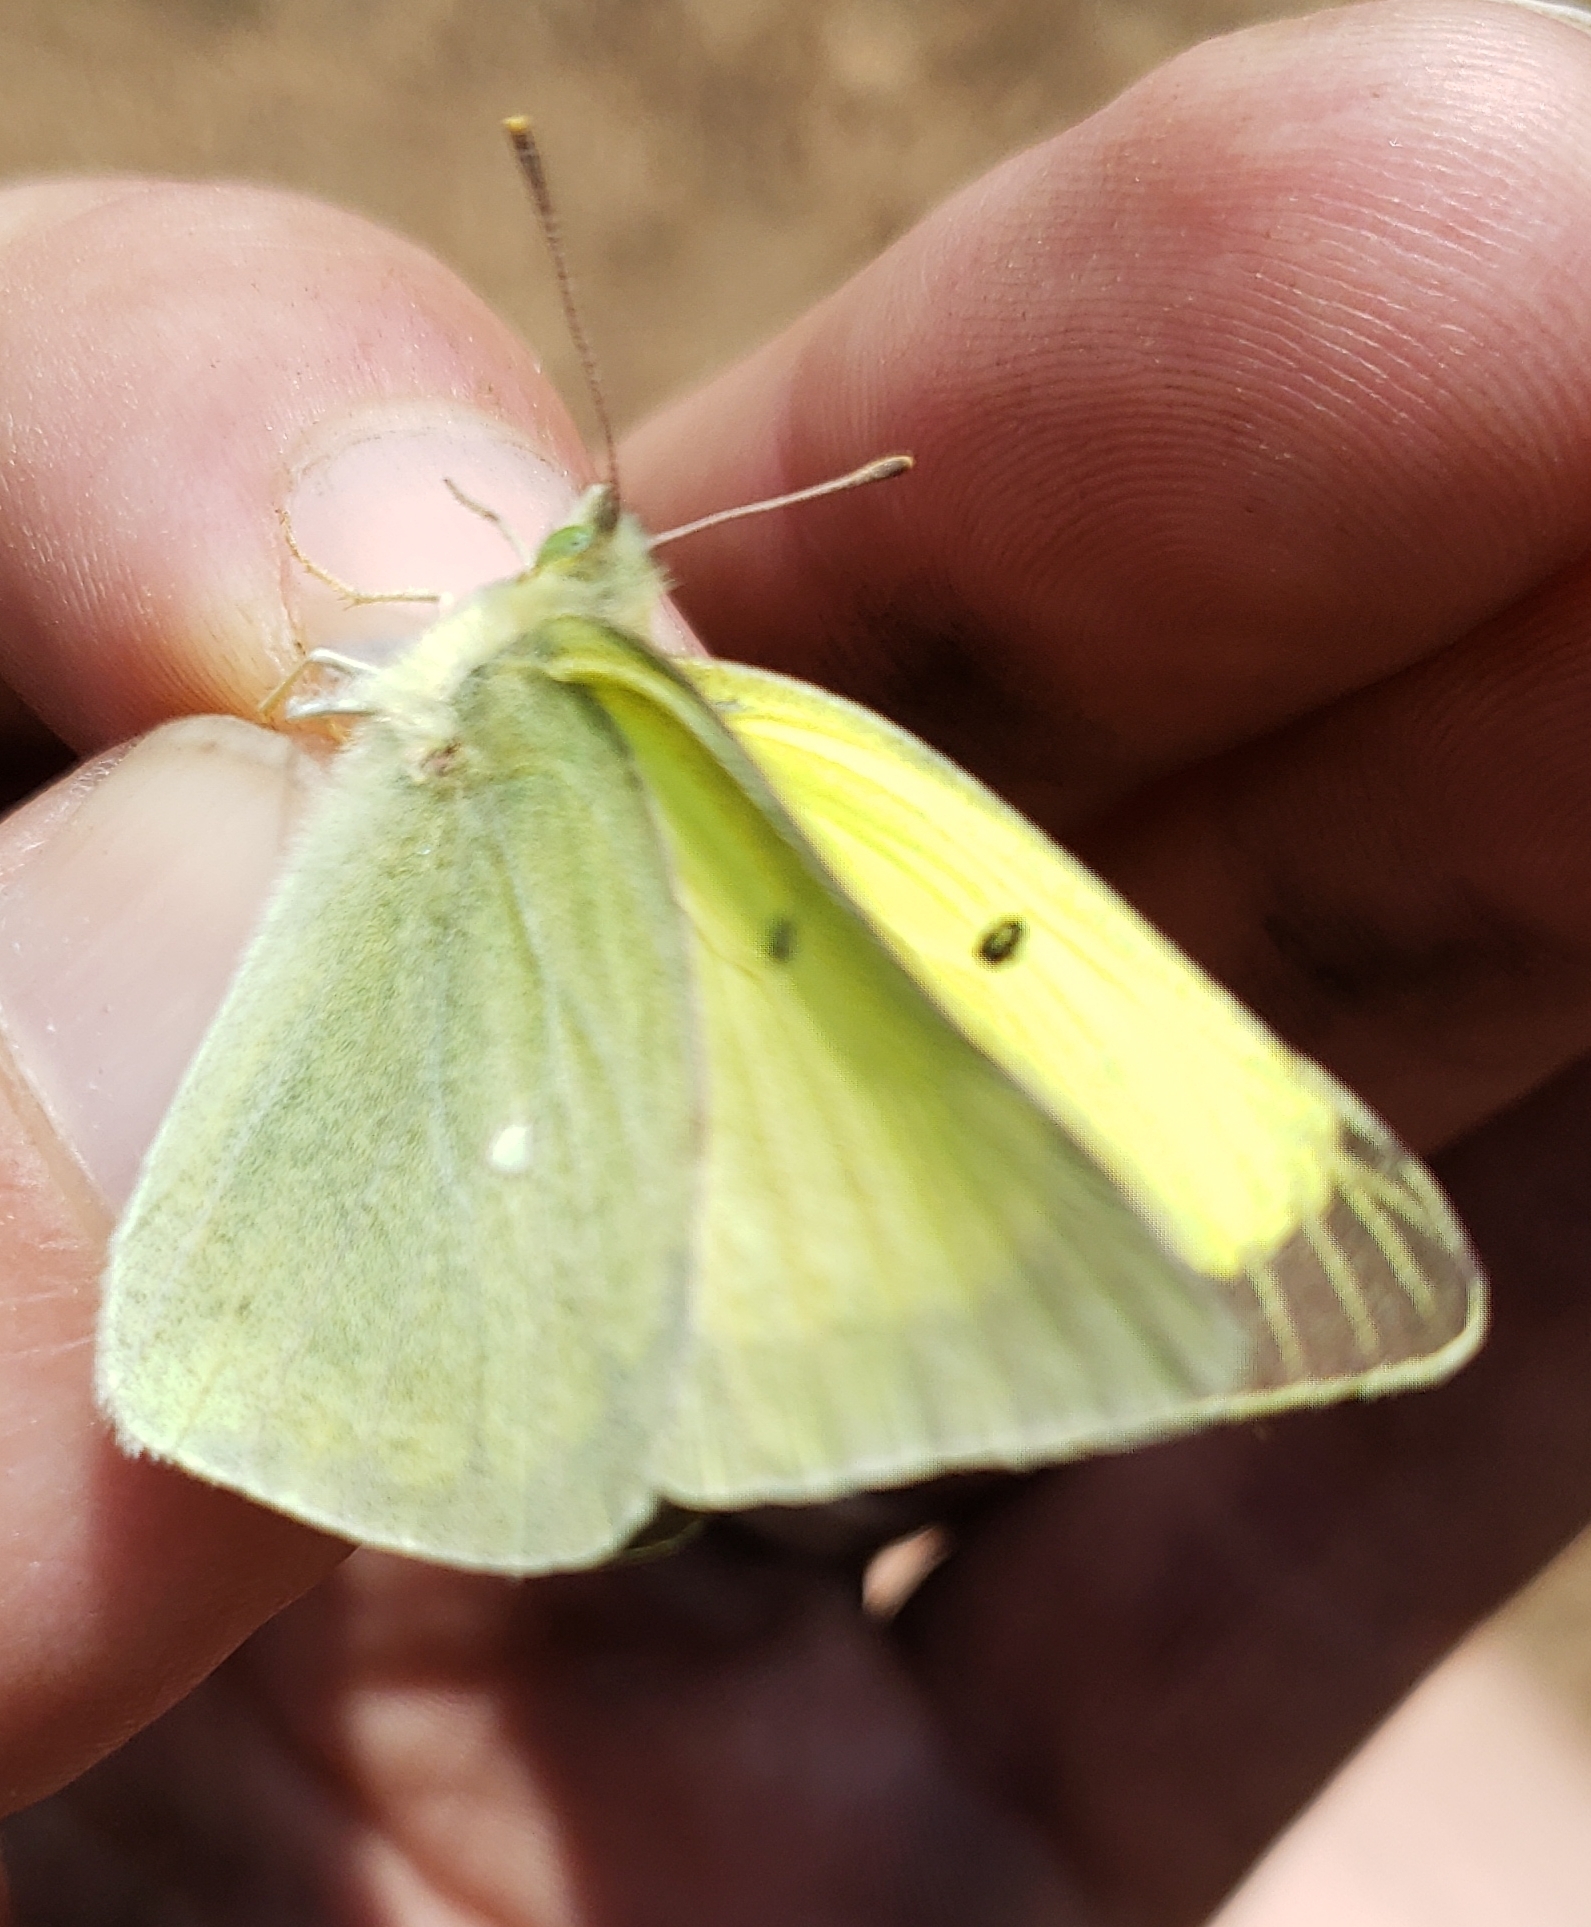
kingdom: Animalia
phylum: Arthropoda
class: Insecta
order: Lepidoptera
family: Pieridae
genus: Colias
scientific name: Colias alexandra
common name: Alexandra sulphur
